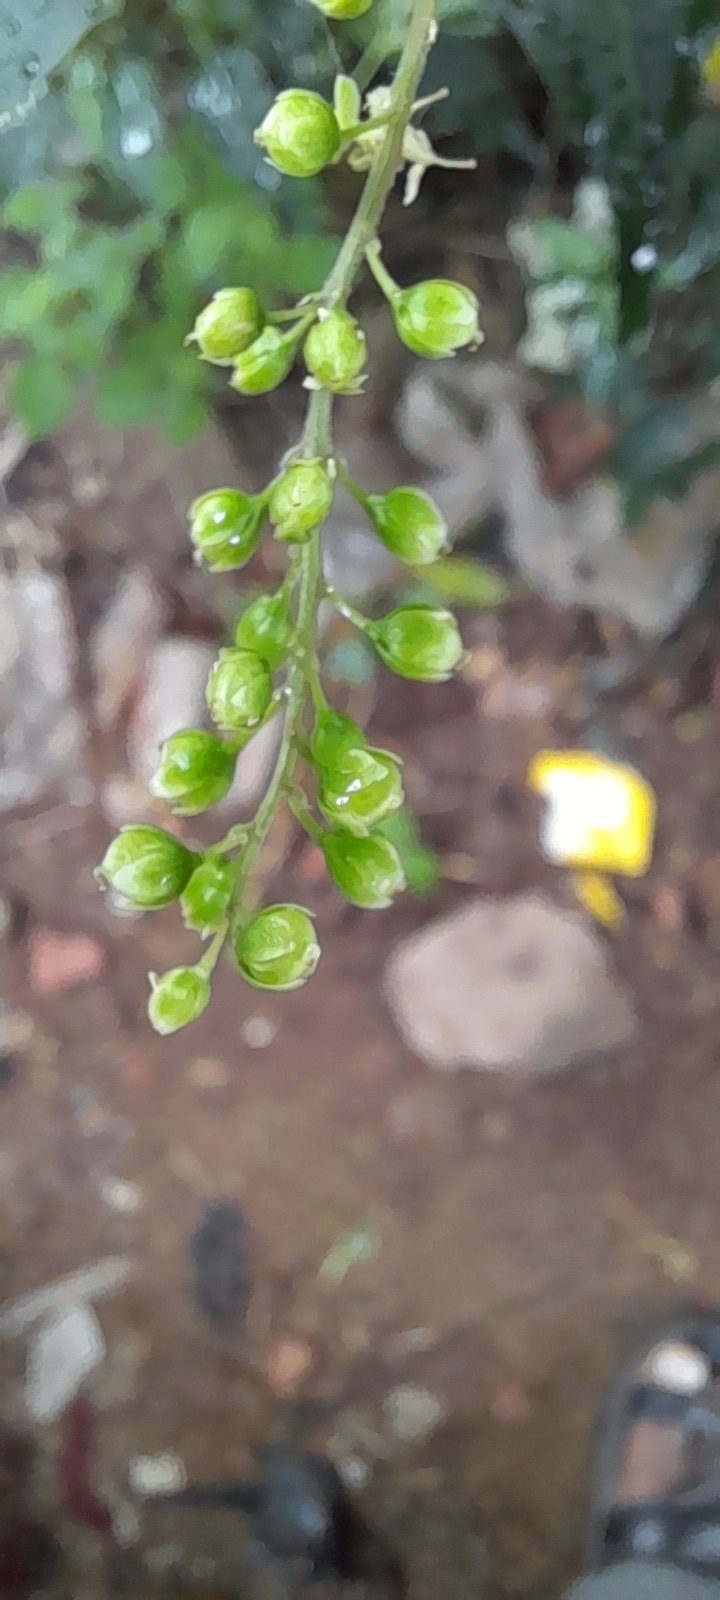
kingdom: Plantae
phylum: Tracheophyta
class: Magnoliopsida
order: Caryophyllales
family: Phytolaccaceae
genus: Rivina
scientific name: Rivina humilis
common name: Rougeplant
